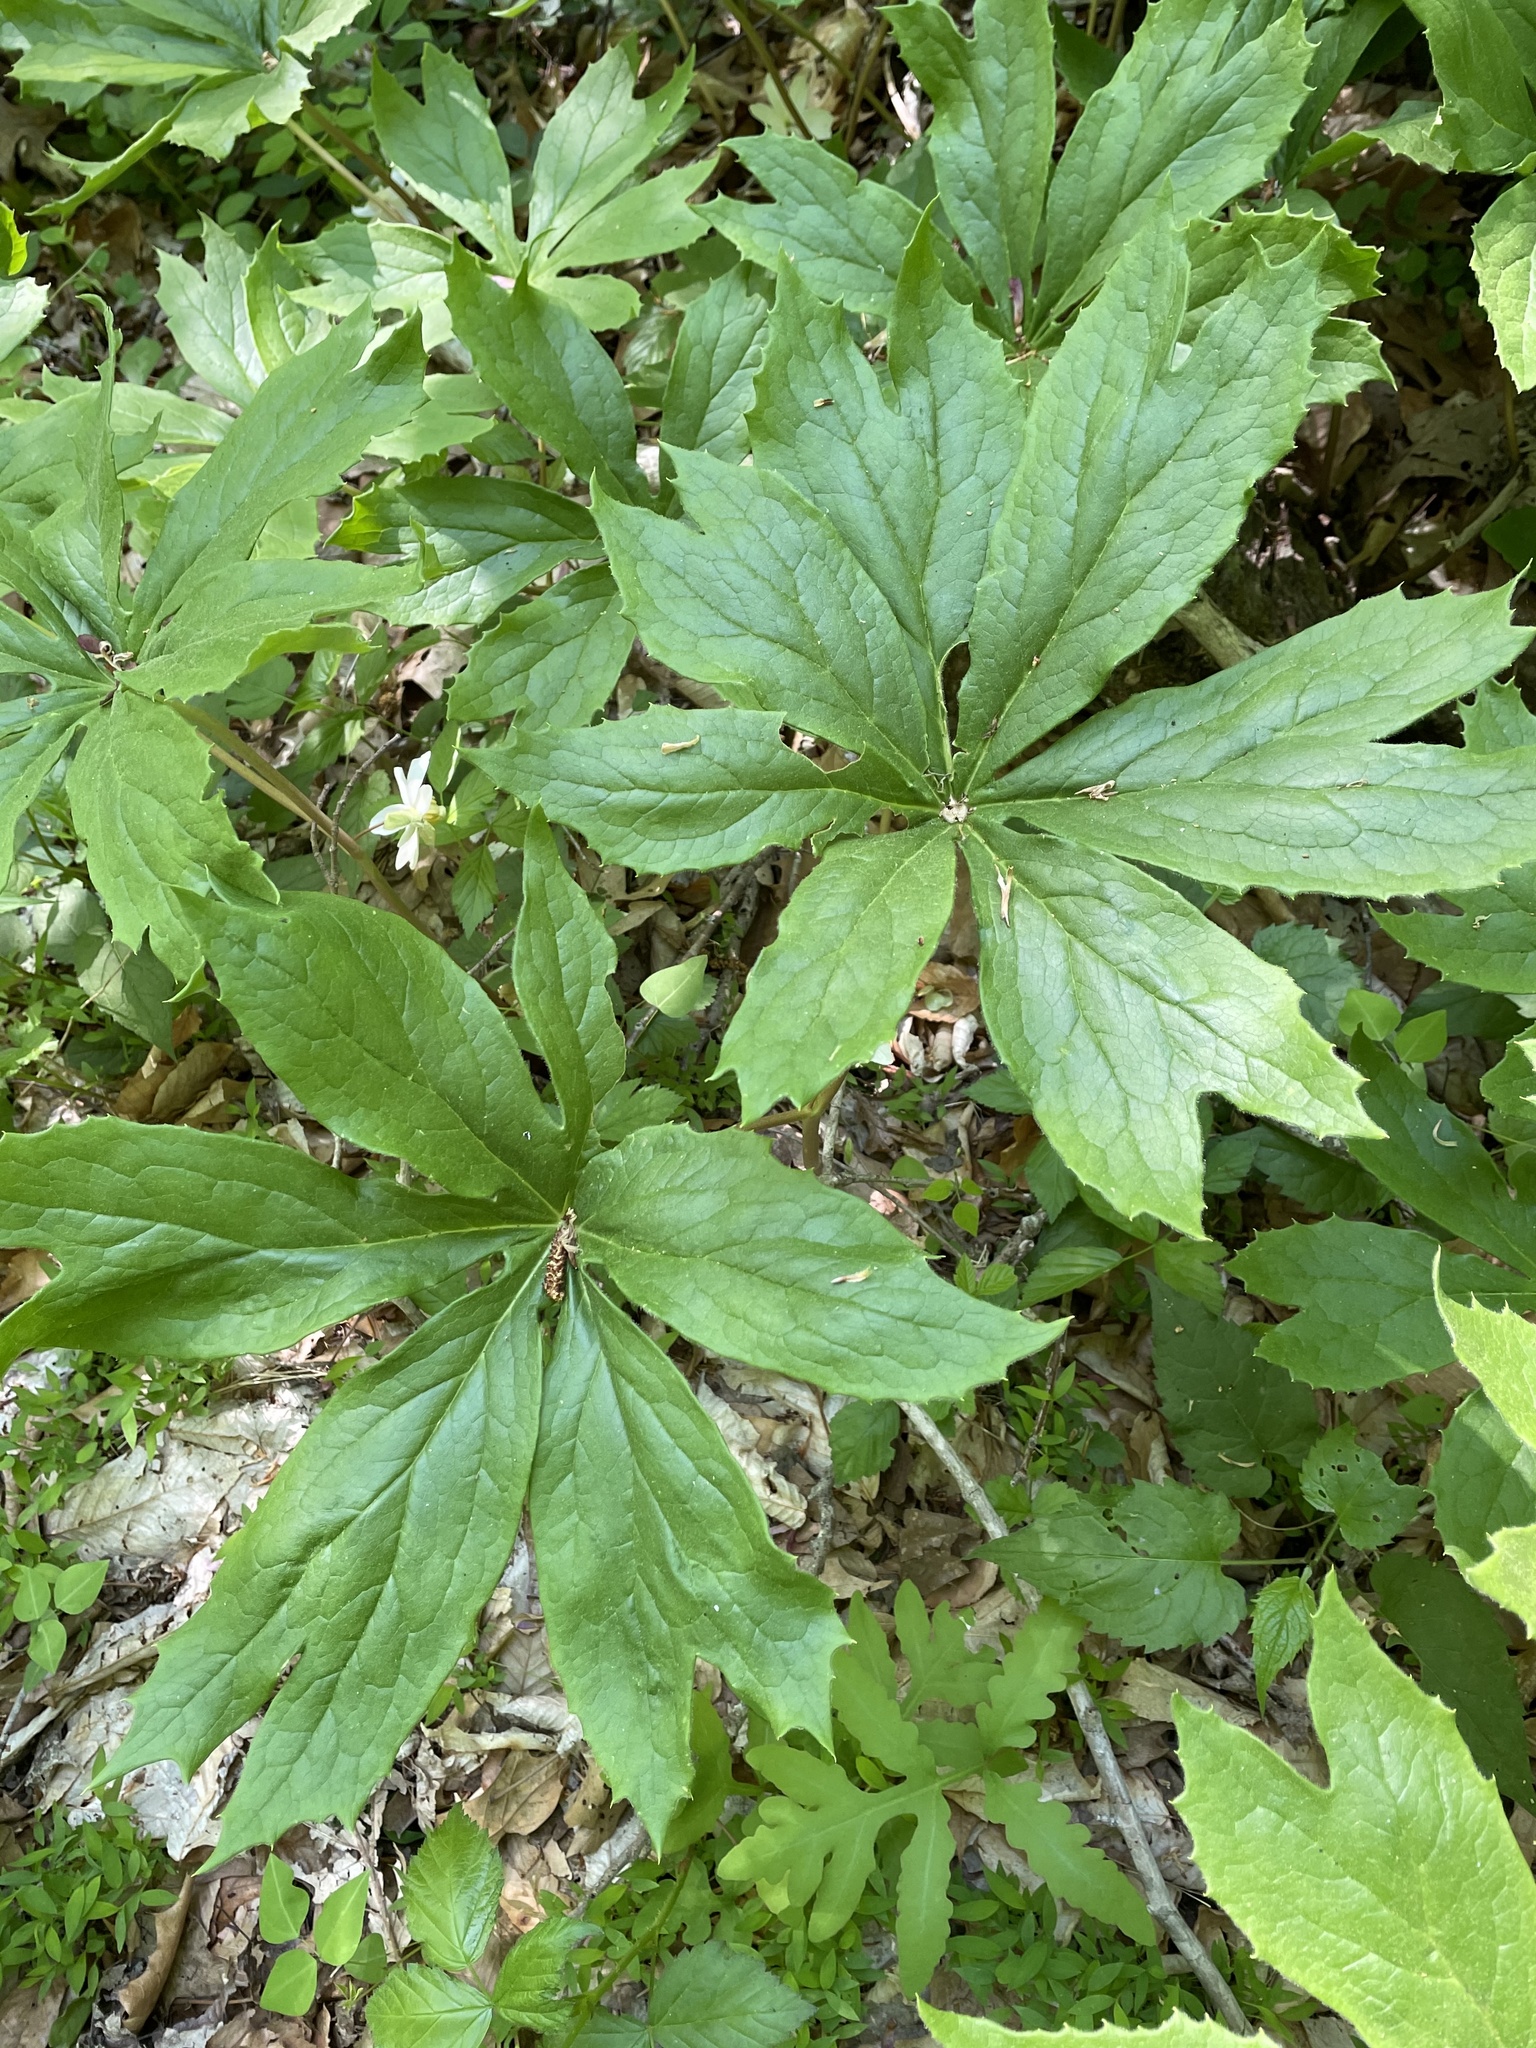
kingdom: Plantae
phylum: Tracheophyta
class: Magnoliopsida
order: Ranunculales
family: Berberidaceae
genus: Podophyllum
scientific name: Podophyllum peltatum
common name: Wild mandrake
